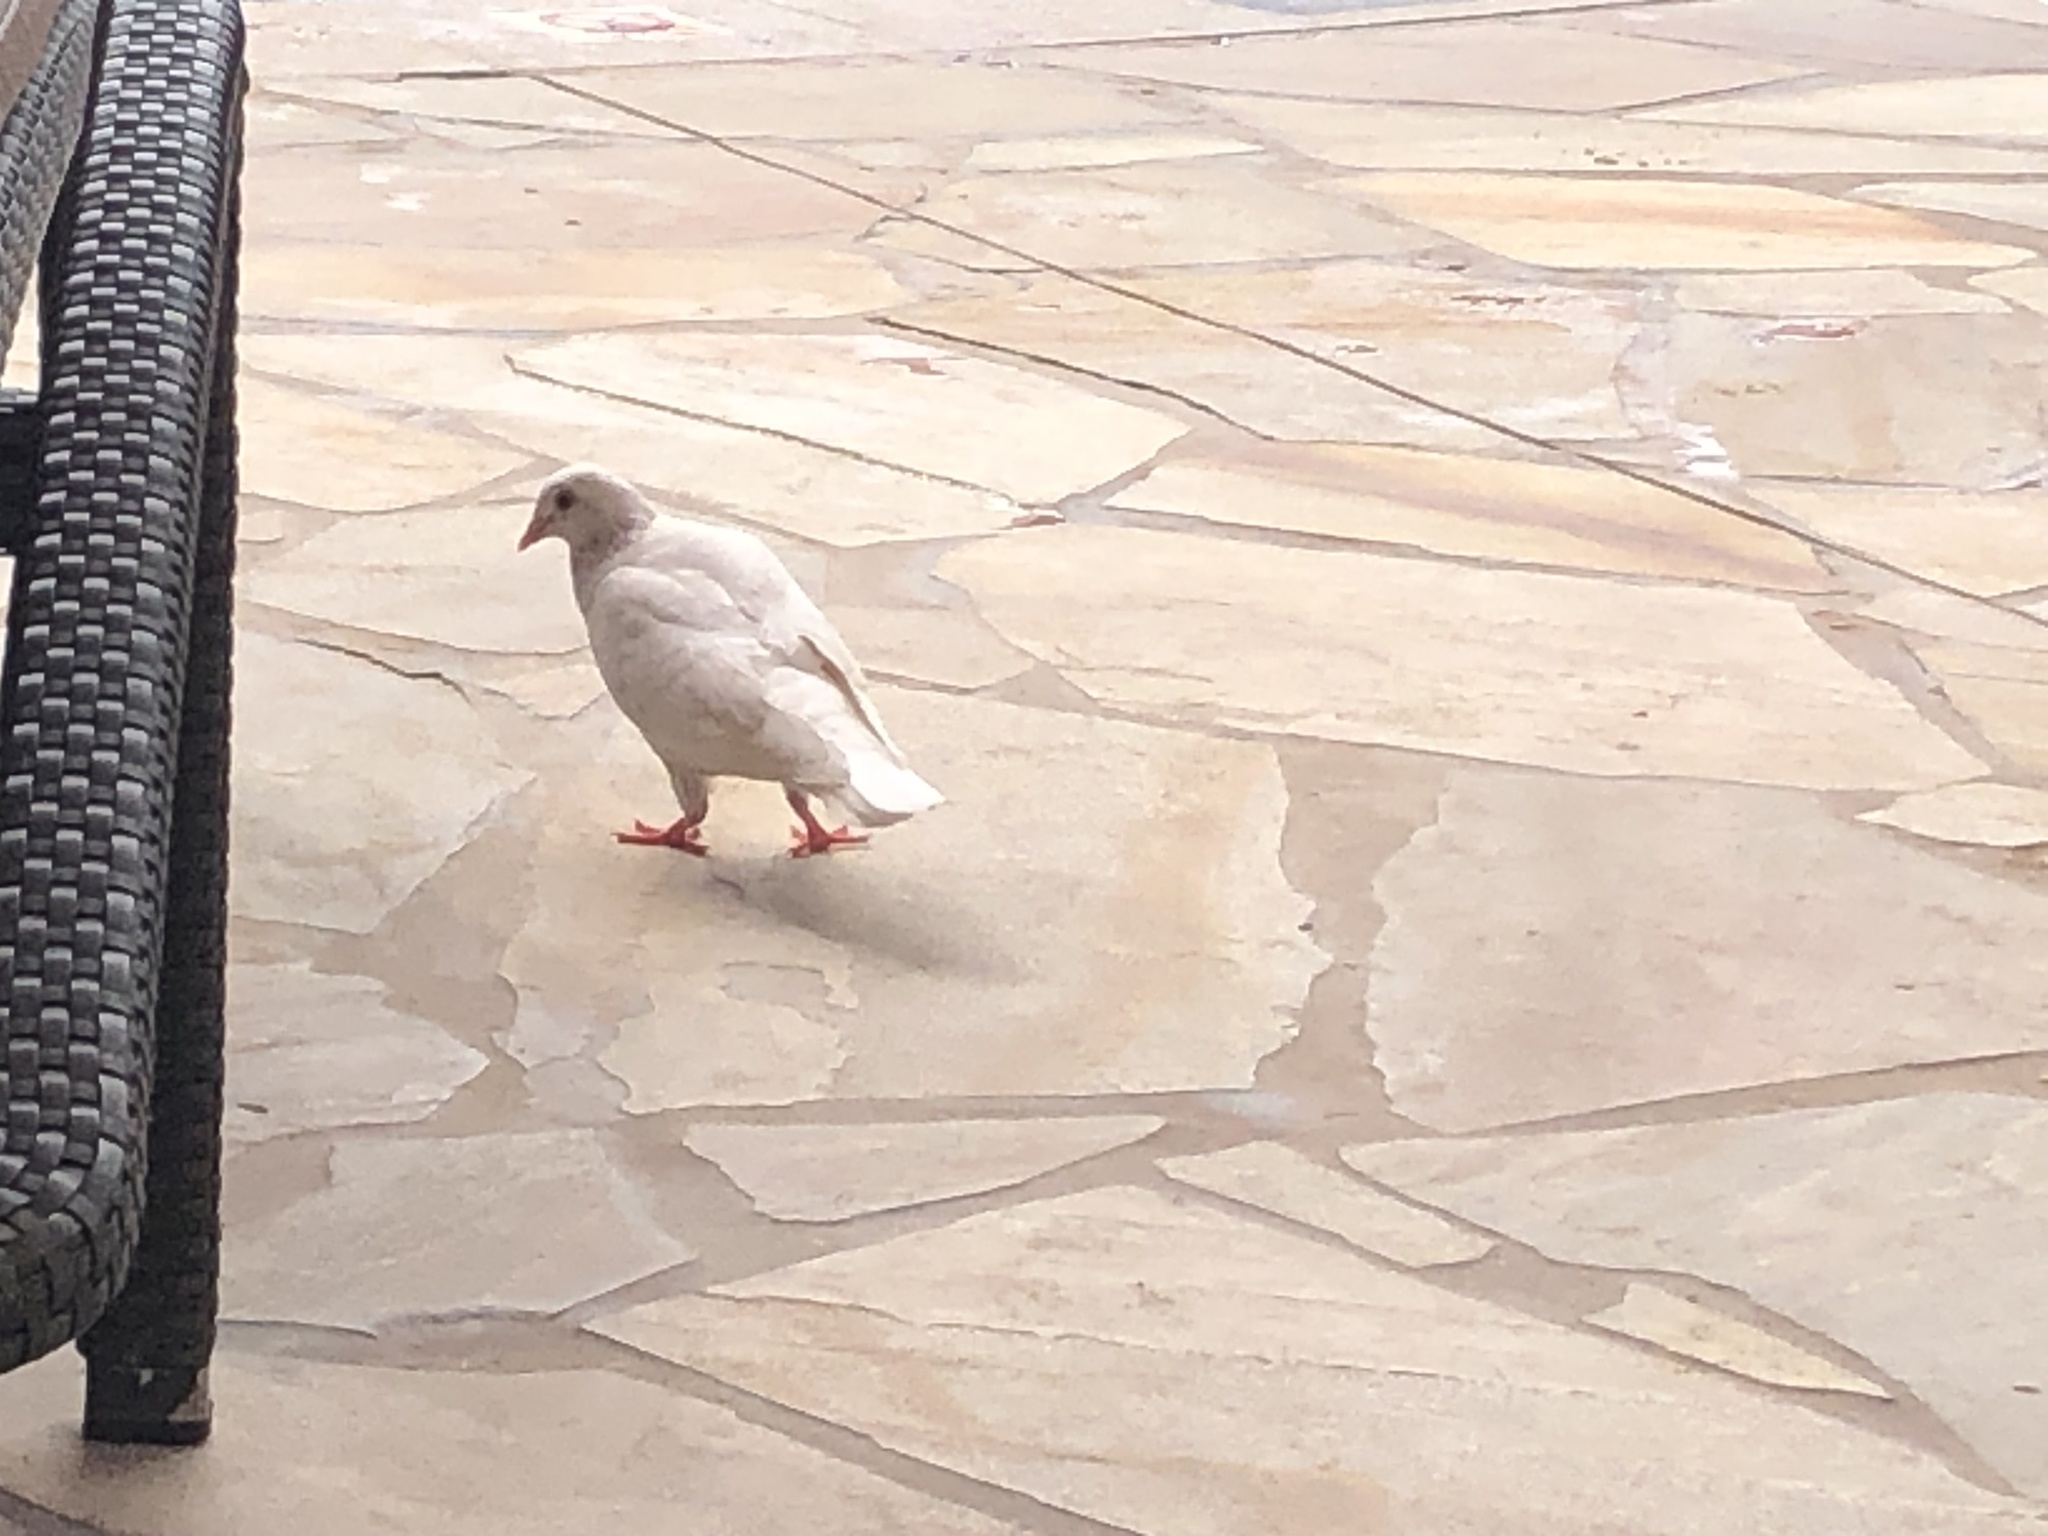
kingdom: Animalia
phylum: Chordata
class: Aves
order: Columbiformes
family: Columbidae
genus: Columba
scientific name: Columba livia
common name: Rock pigeon
